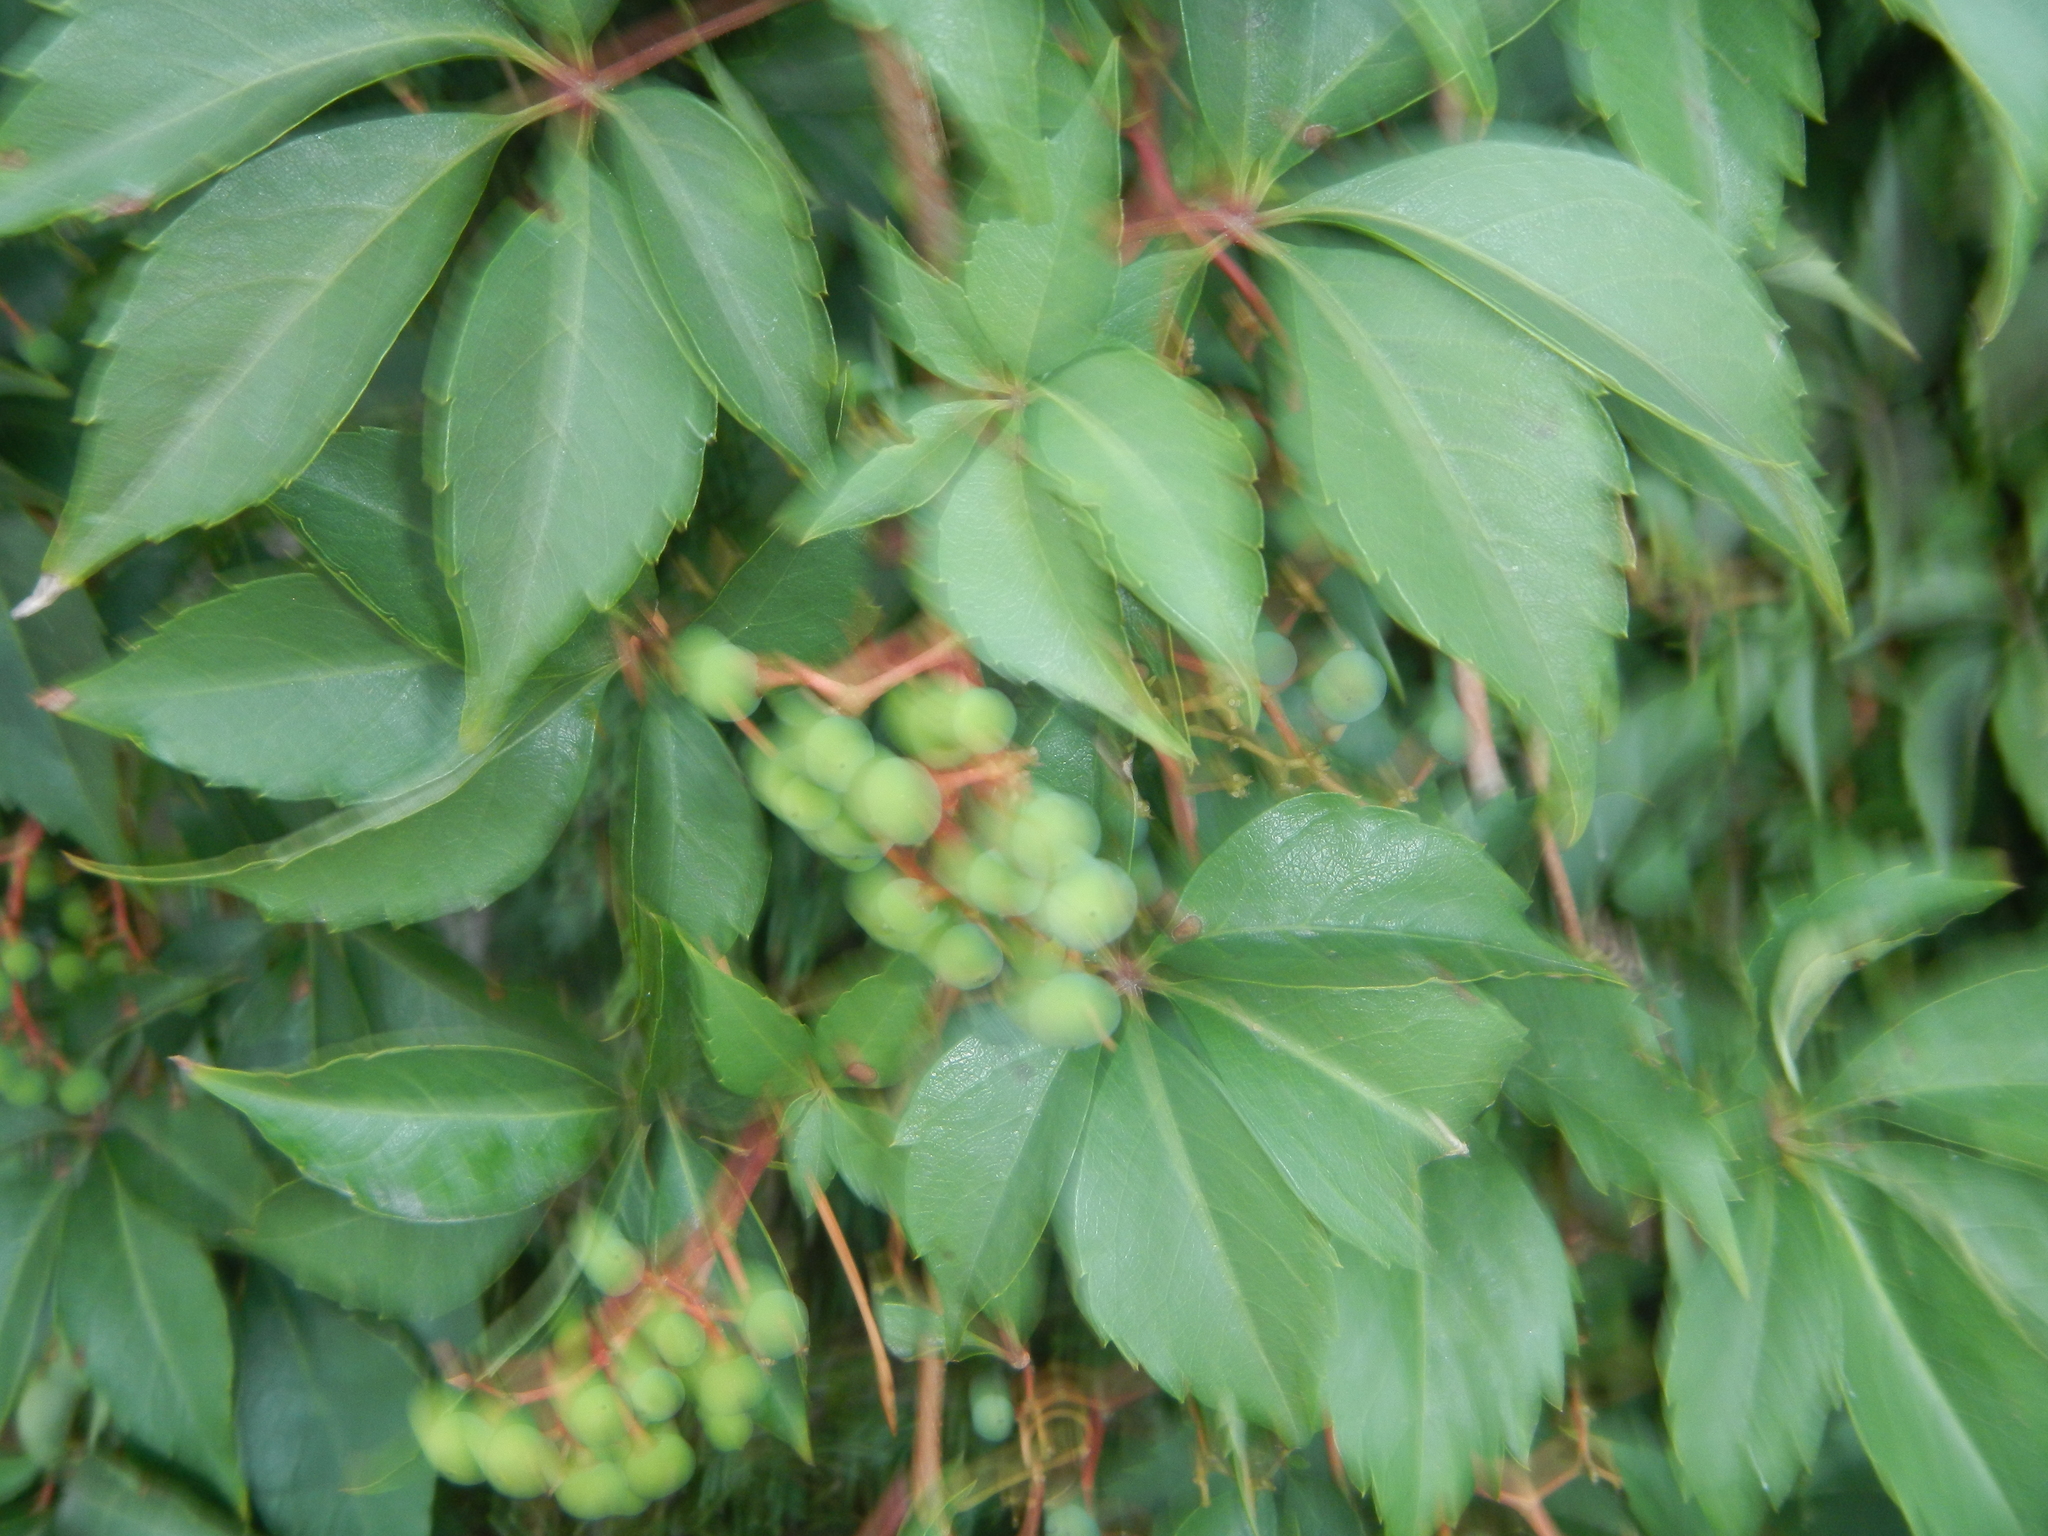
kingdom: Plantae
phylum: Tracheophyta
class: Magnoliopsida
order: Vitales
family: Vitaceae
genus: Parthenocissus
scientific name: Parthenocissus quinquefolia
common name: Virginia-creeper
